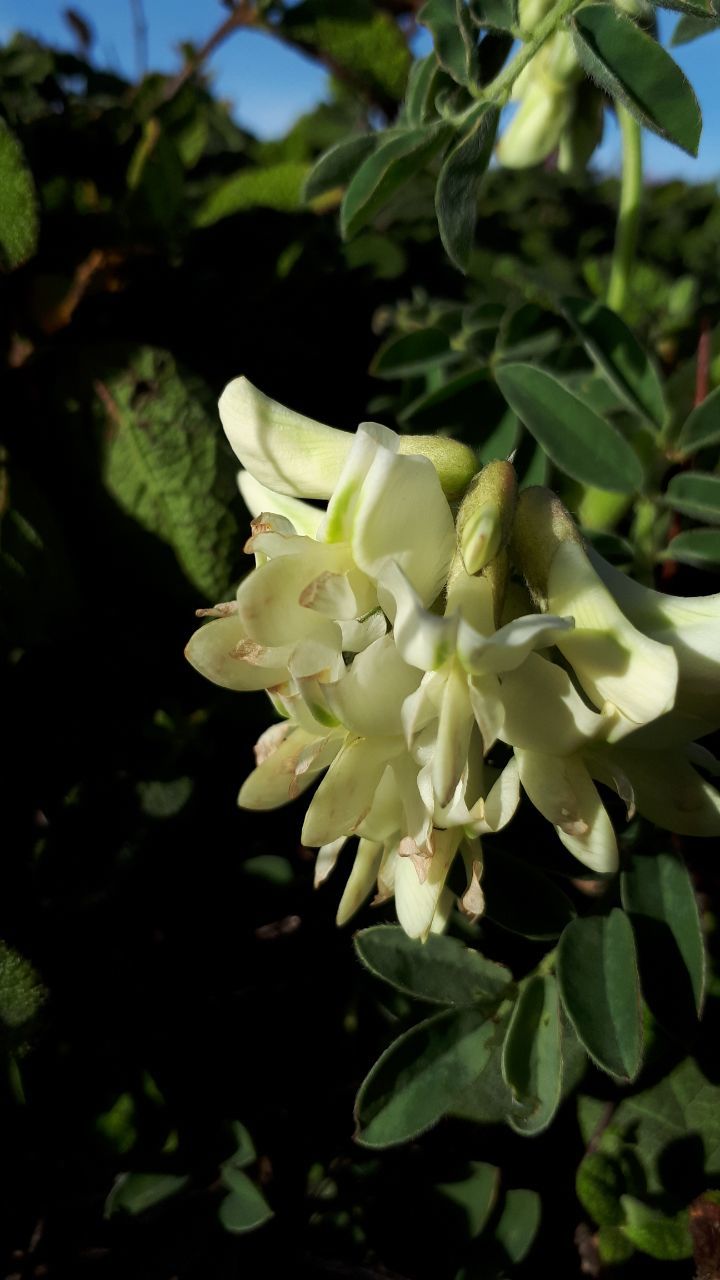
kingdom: Plantae
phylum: Tracheophyta
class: Magnoliopsida
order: Fabales
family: Fabaceae
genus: Erophaca
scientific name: Erophaca baetica
